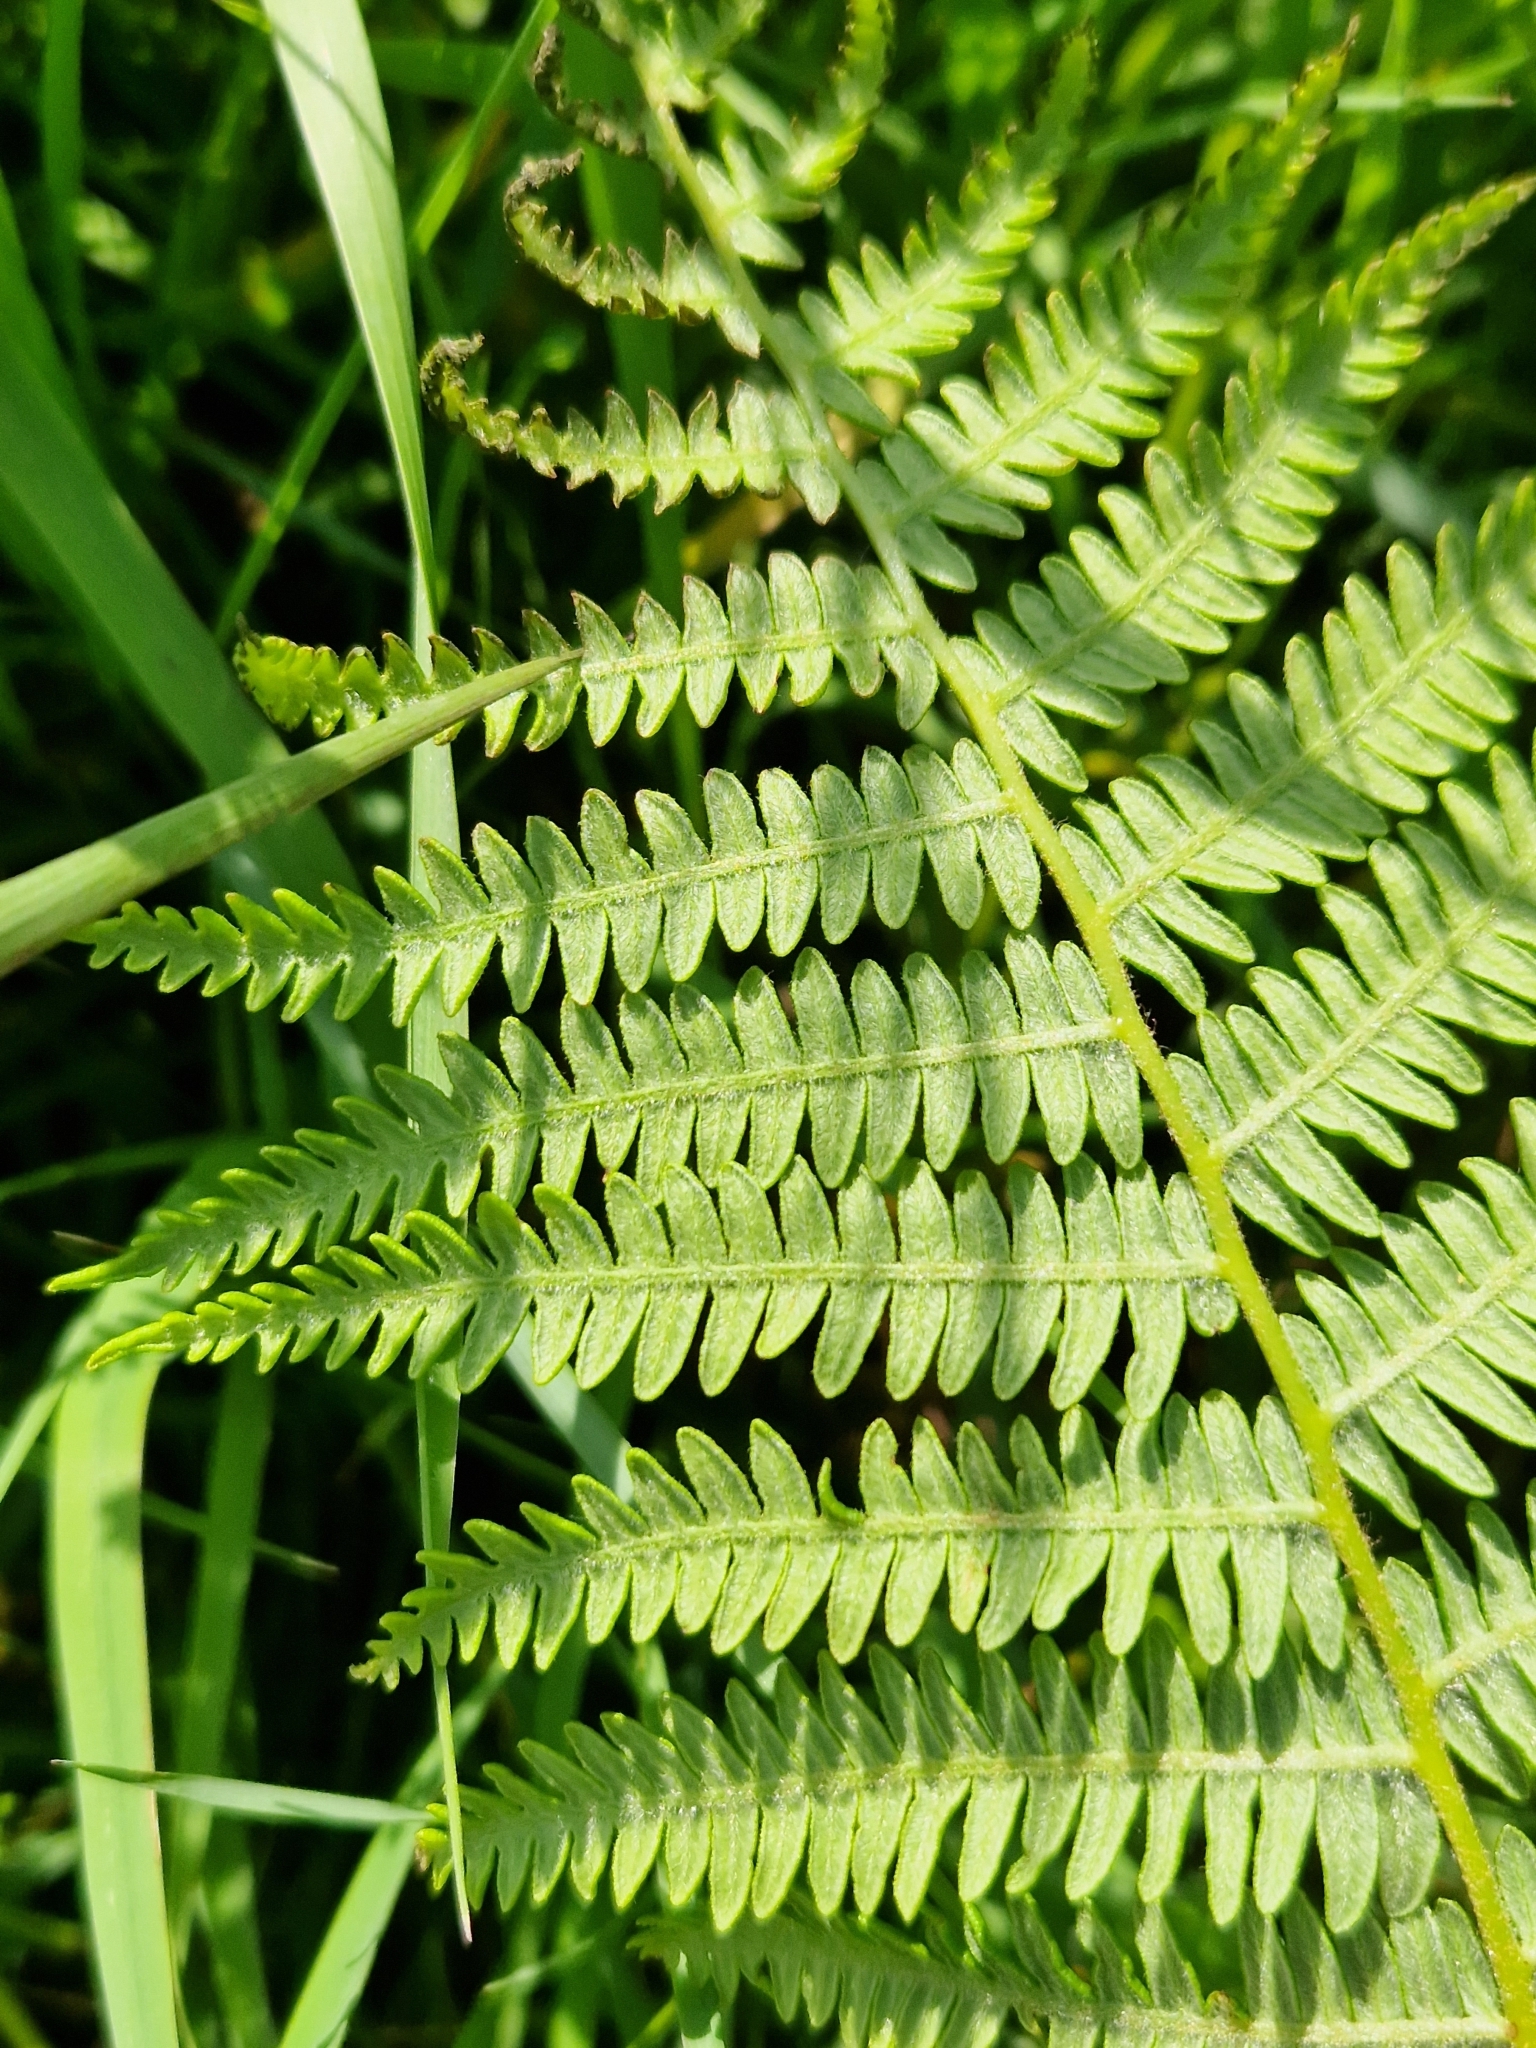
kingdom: Plantae
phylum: Tracheophyta
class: Polypodiopsida
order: Polypodiales
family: Dennstaedtiaceae
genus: Pteridium
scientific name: Pteridium aquilinum
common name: Bracken
